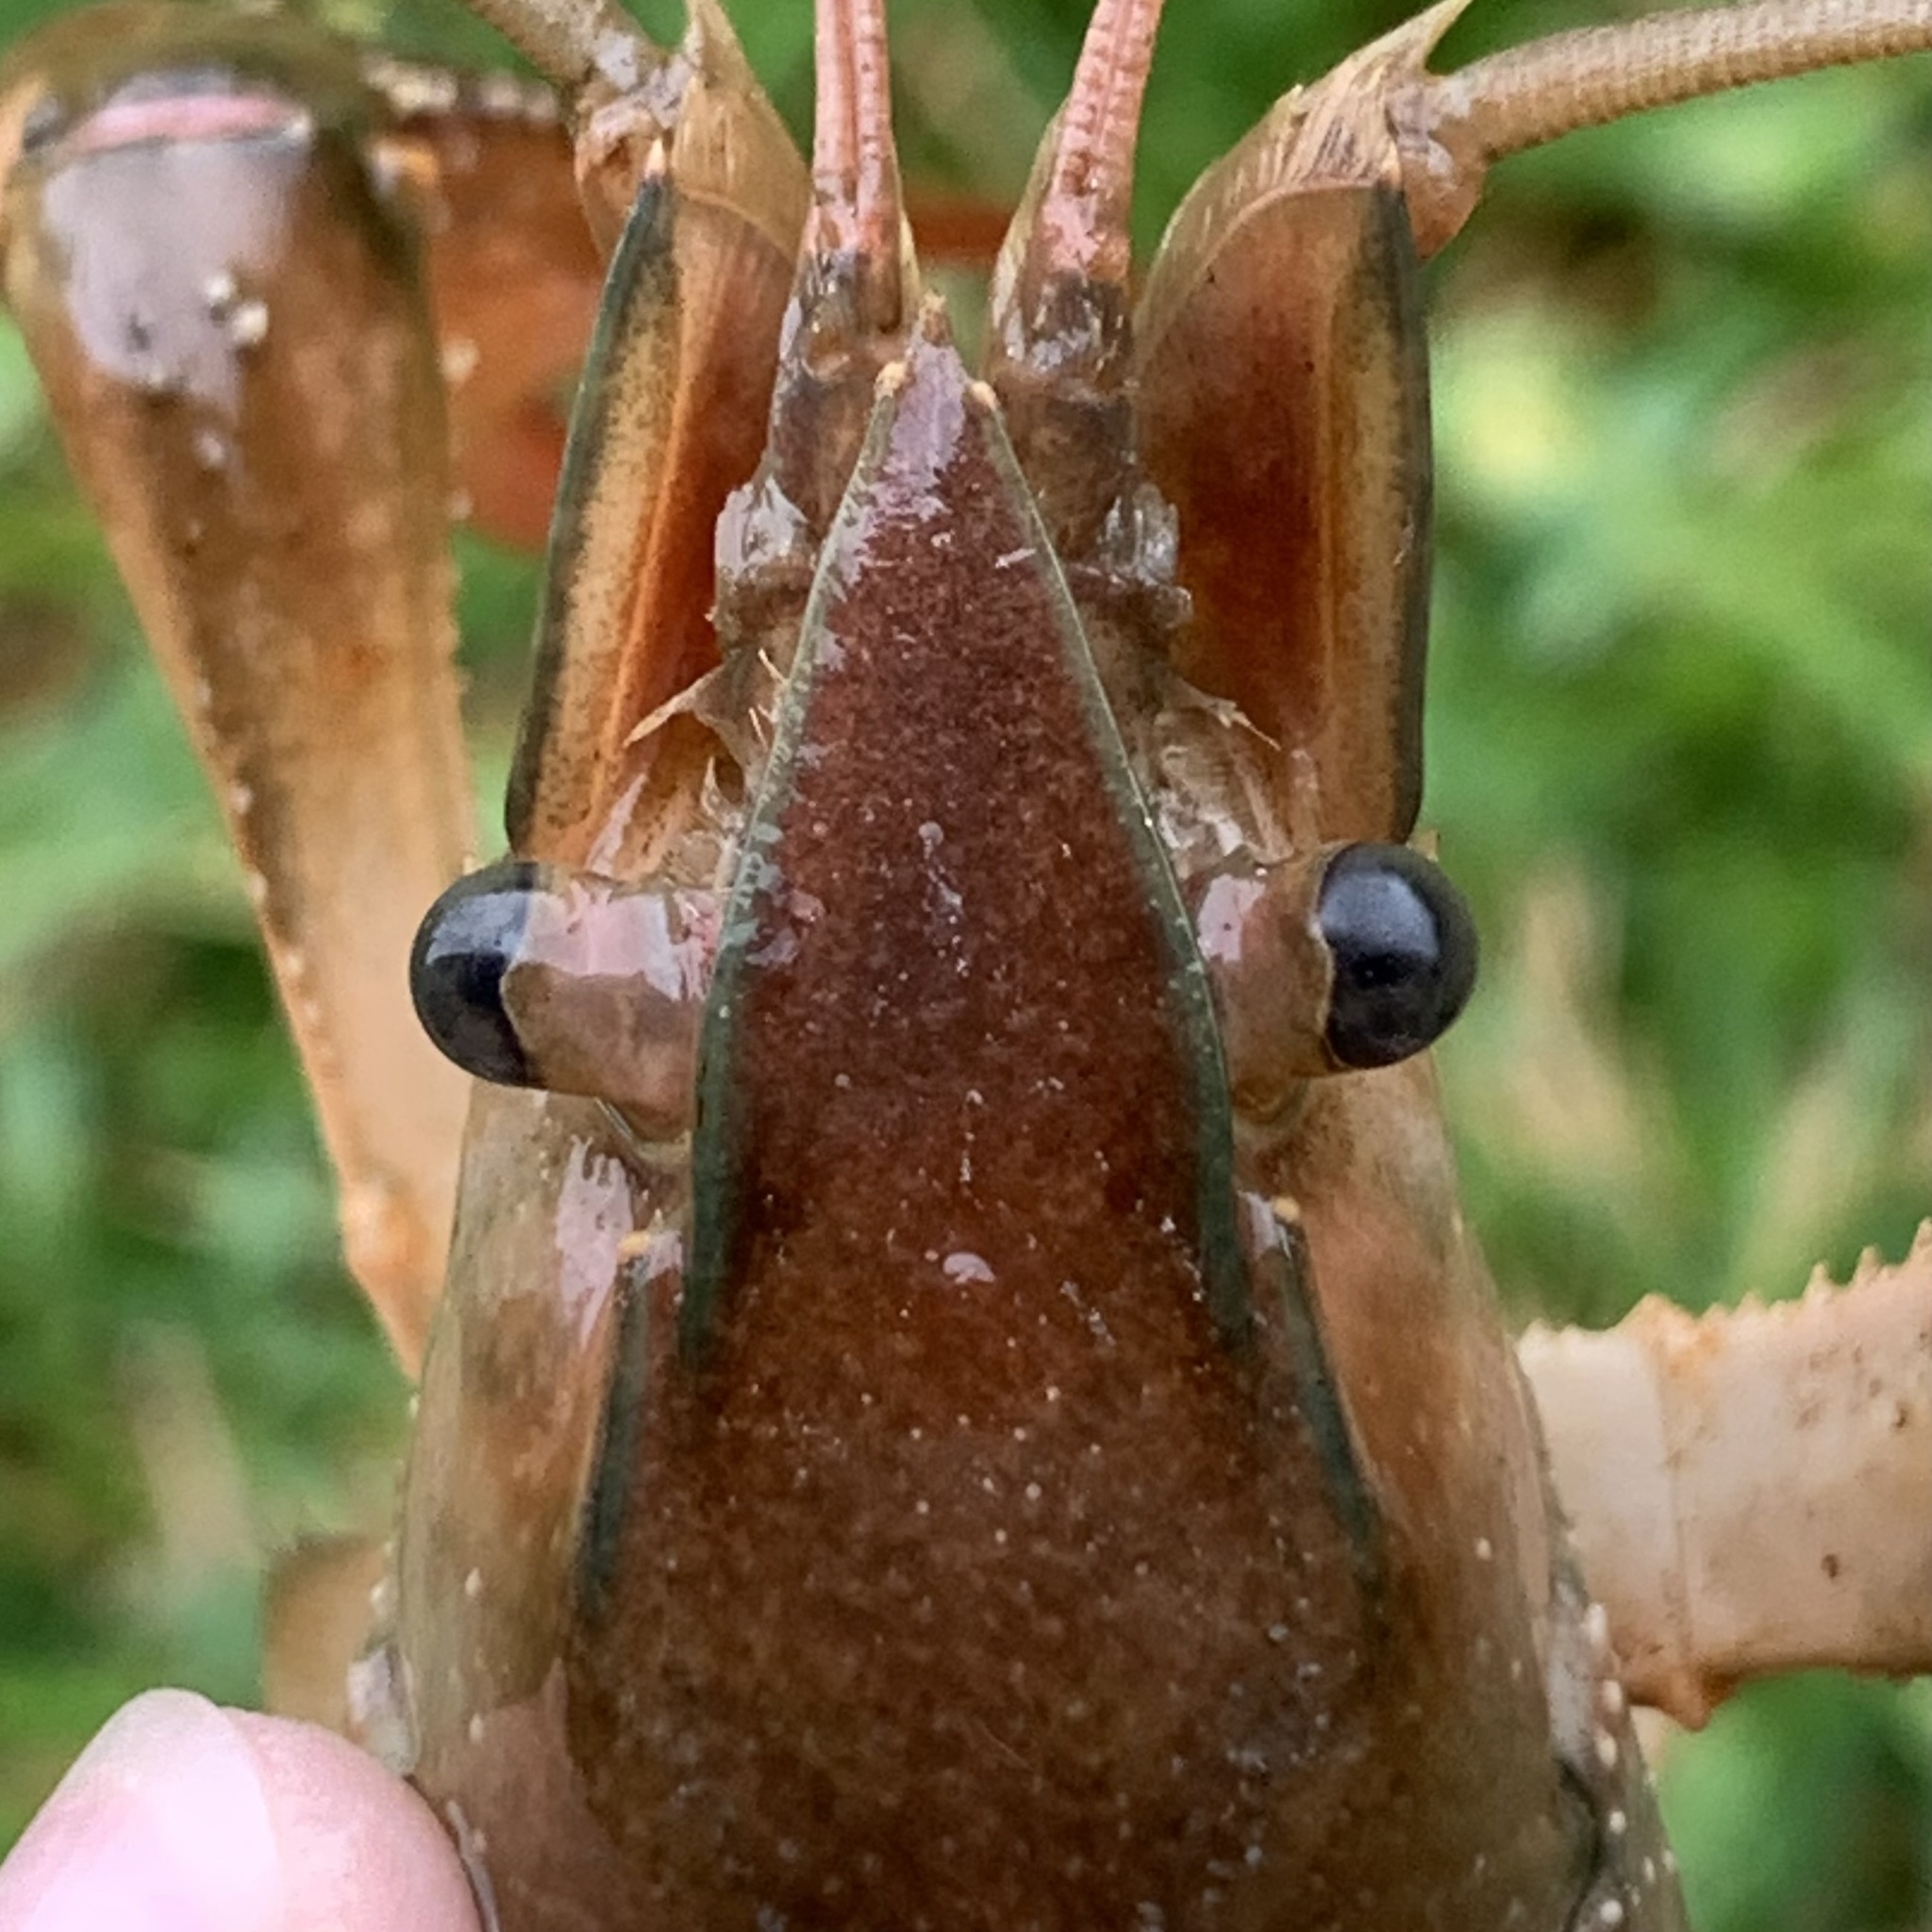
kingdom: Animalia
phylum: Arthropoda
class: Malacostraca
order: Decapoda
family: Cambaridae
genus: Procambarus
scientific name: Procambarus acutus
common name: White river crayfish
